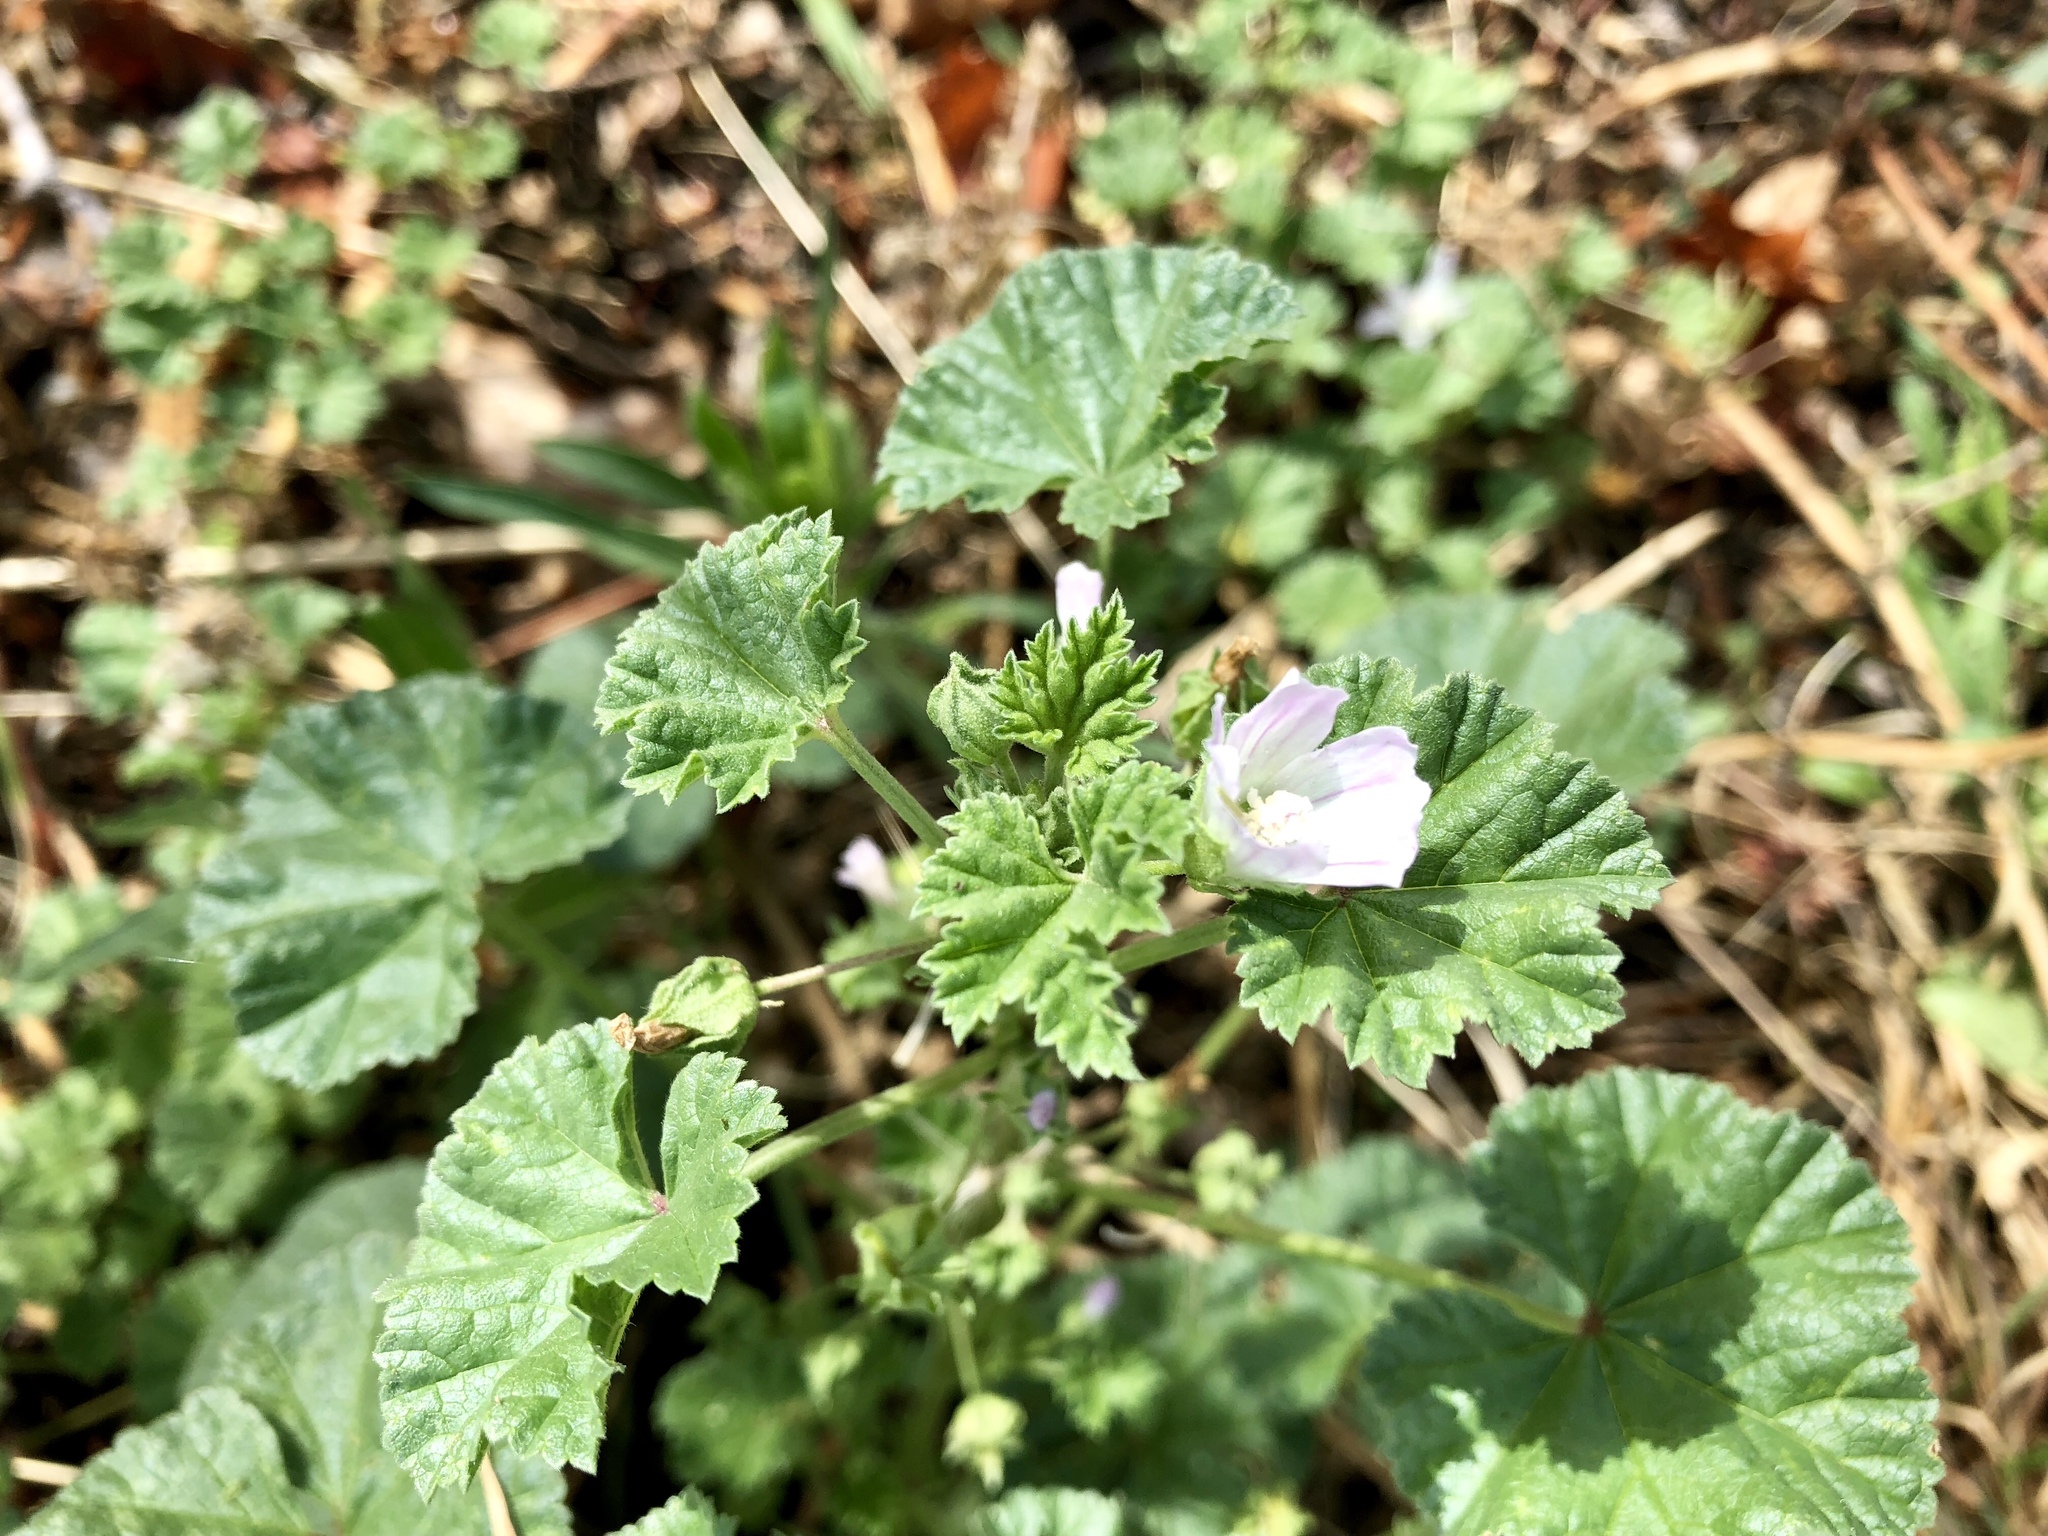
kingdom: Plantae
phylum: Tracheophyta
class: Magnoliopsida
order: Malvales
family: Malvaceae
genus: Malva
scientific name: Malva neglecta
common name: Common mallow
